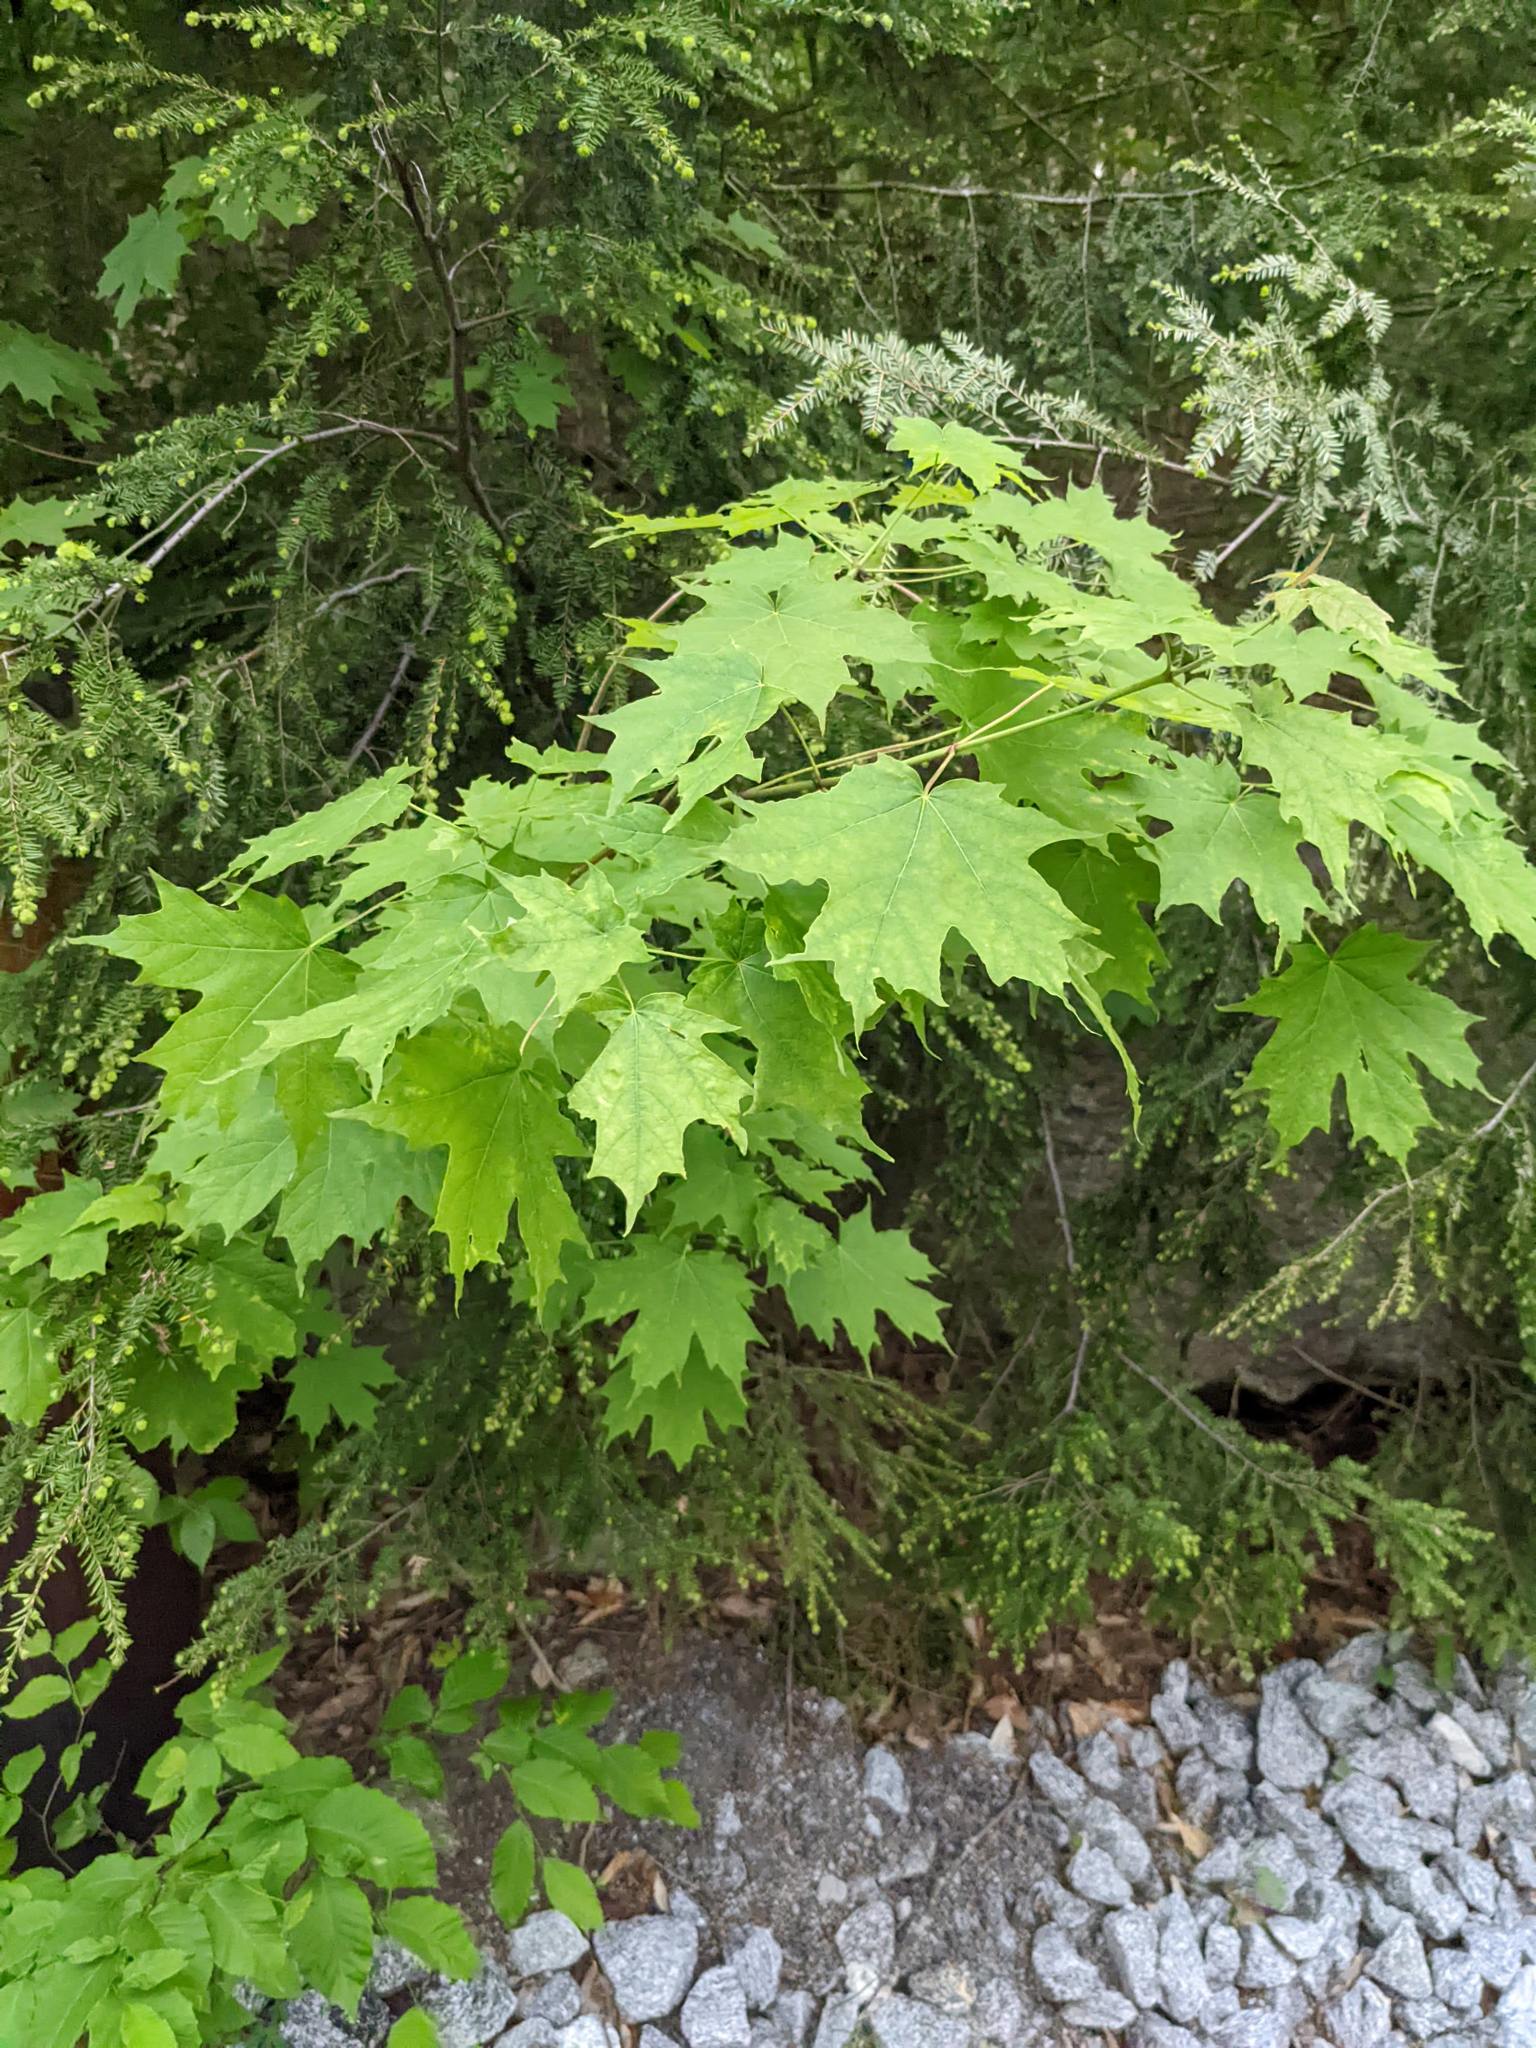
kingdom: Plantae
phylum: Tracheophyta
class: Magnoliopsida
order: Sapindales
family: Sapindaceae
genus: Acer
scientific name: Acer saccharum
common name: Sugar maple
